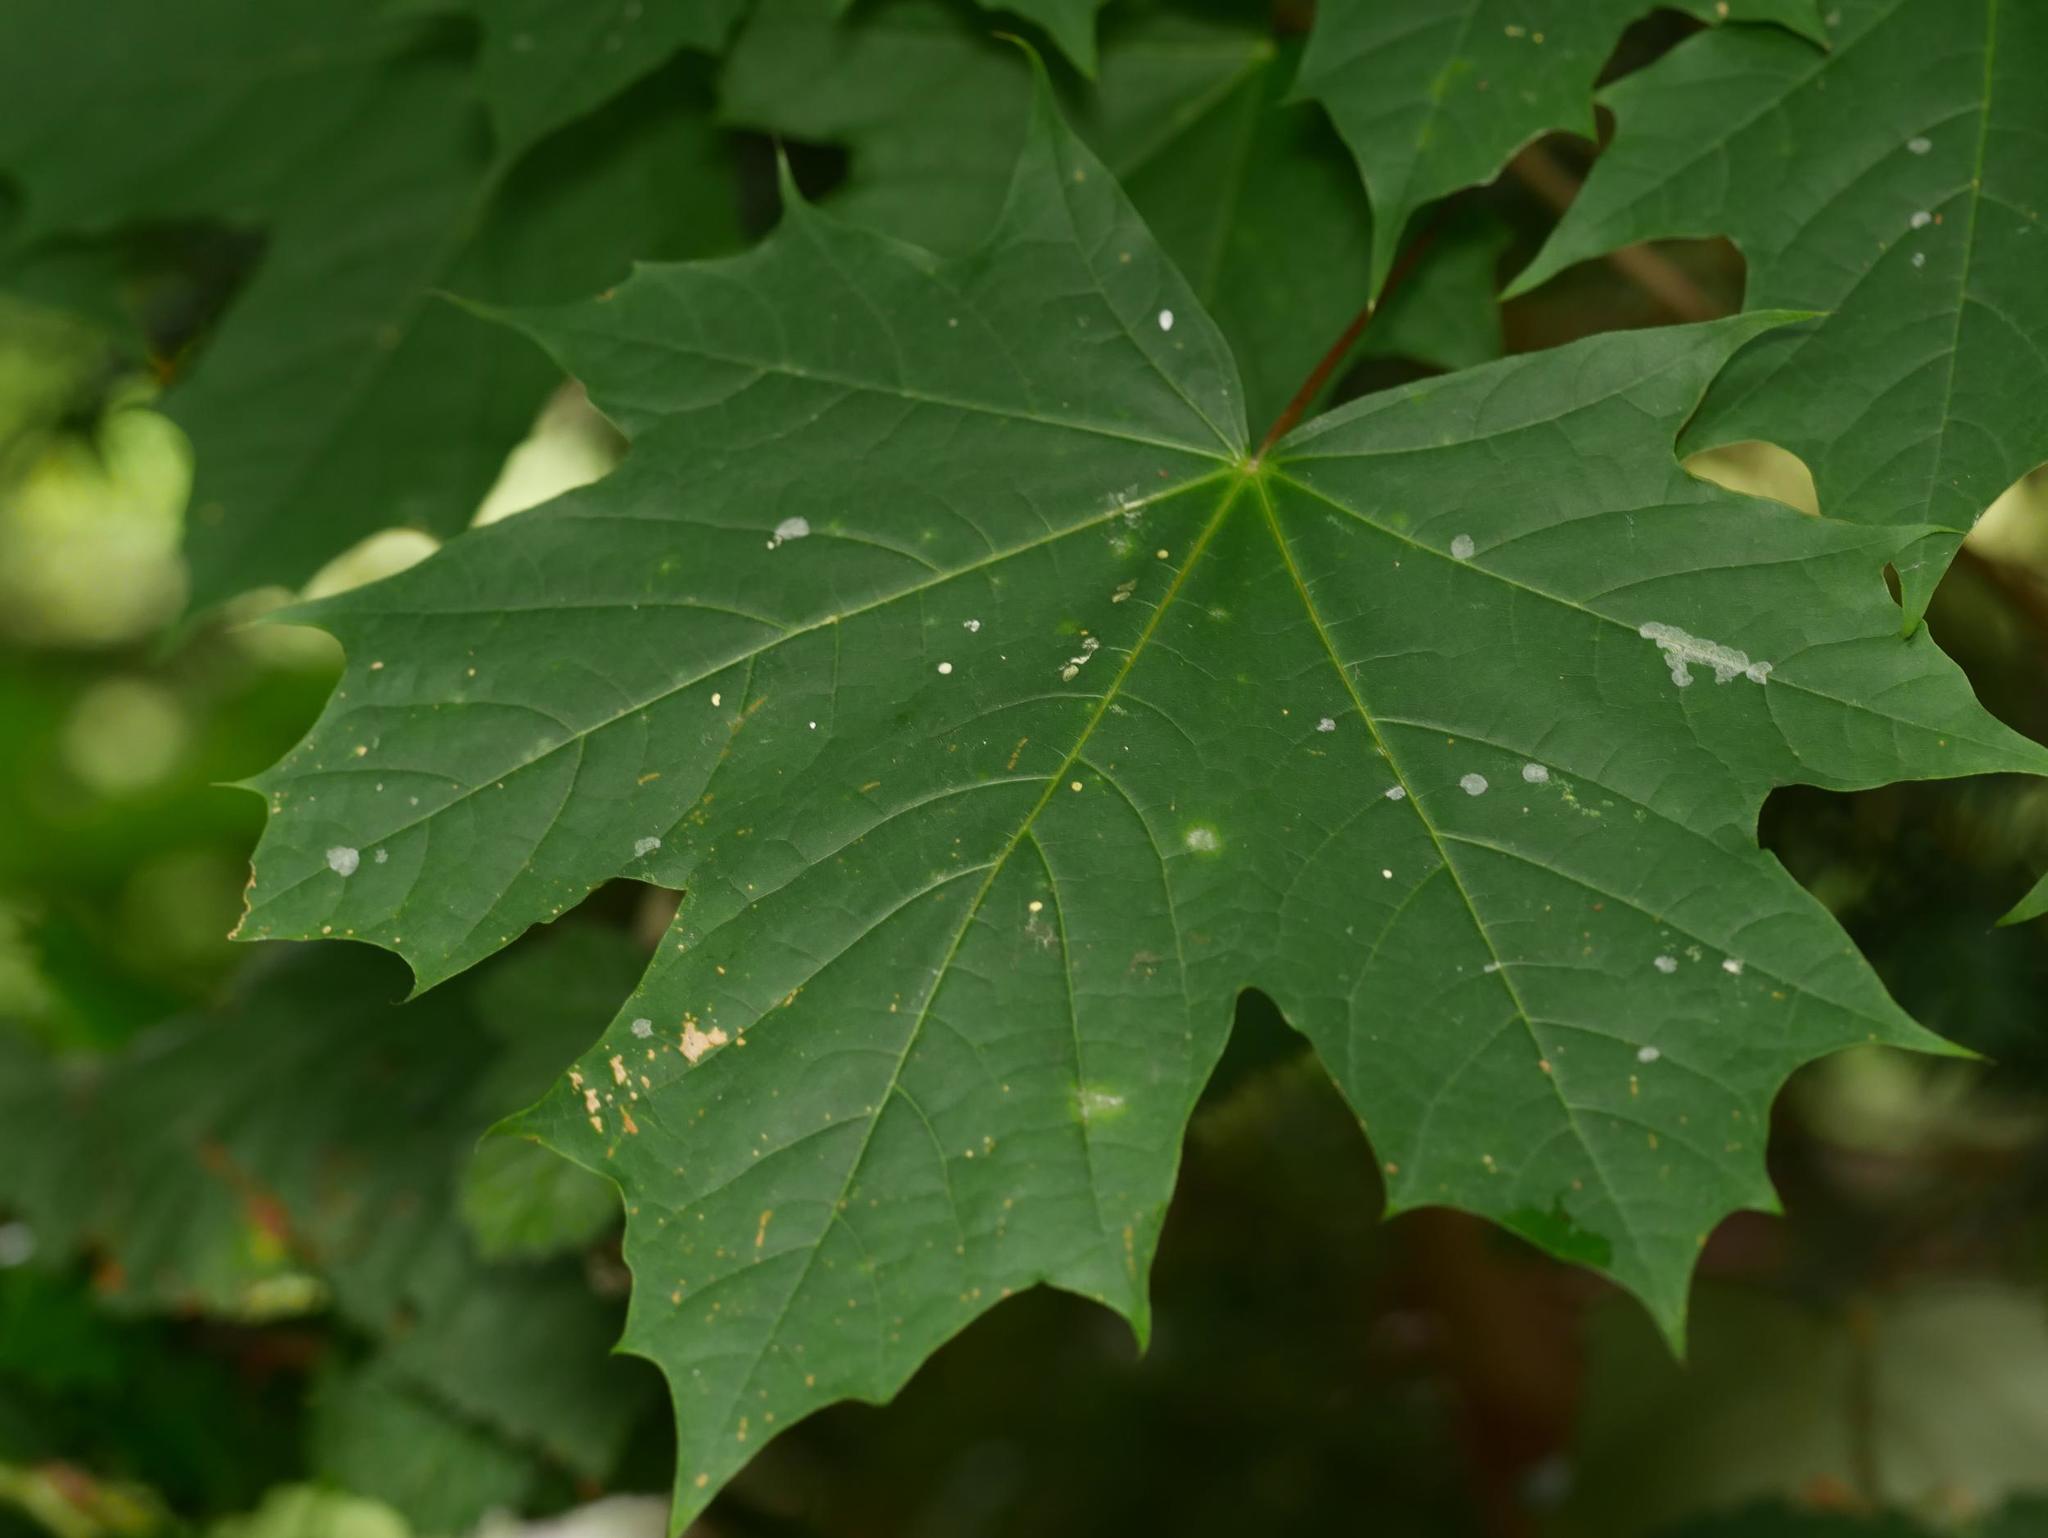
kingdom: Plantae
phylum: Tracheophyta
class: Magnoliopsida
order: Sapindales
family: Sapindaceae
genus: Acer
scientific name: Acer platanoides
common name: Norway maple
